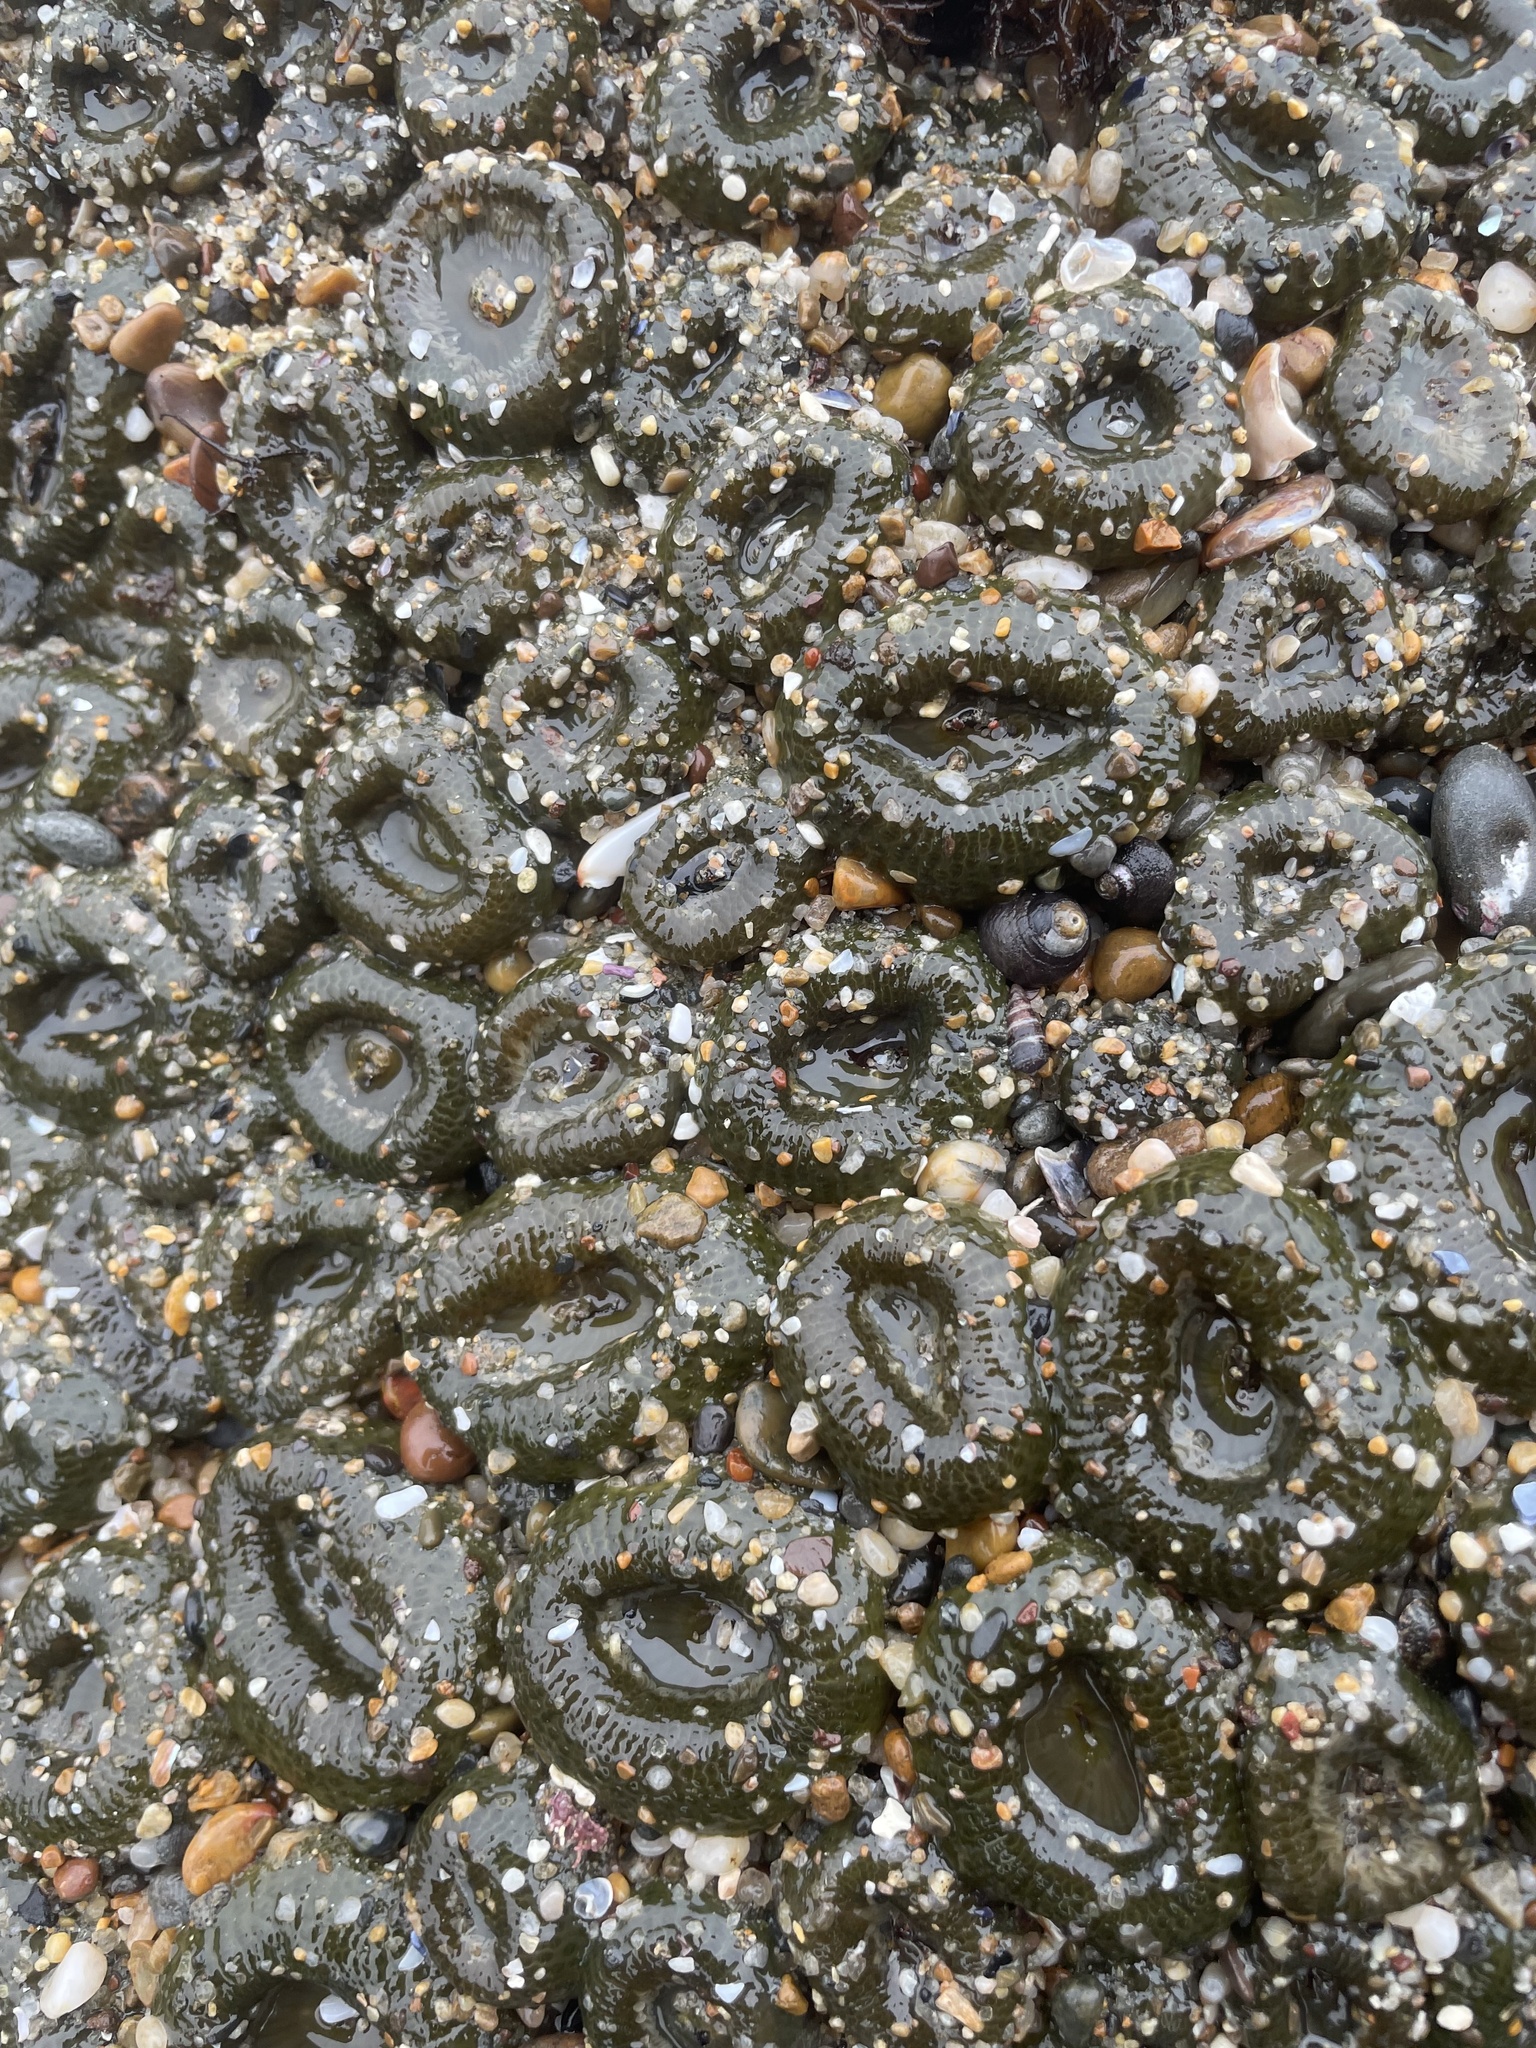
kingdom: Animalia
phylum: Cnidaria
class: Anthozoa
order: Actiniaria
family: Actiniidae
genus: Anthopleura
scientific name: Anthopleura elegantissima
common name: Clonal anemone
